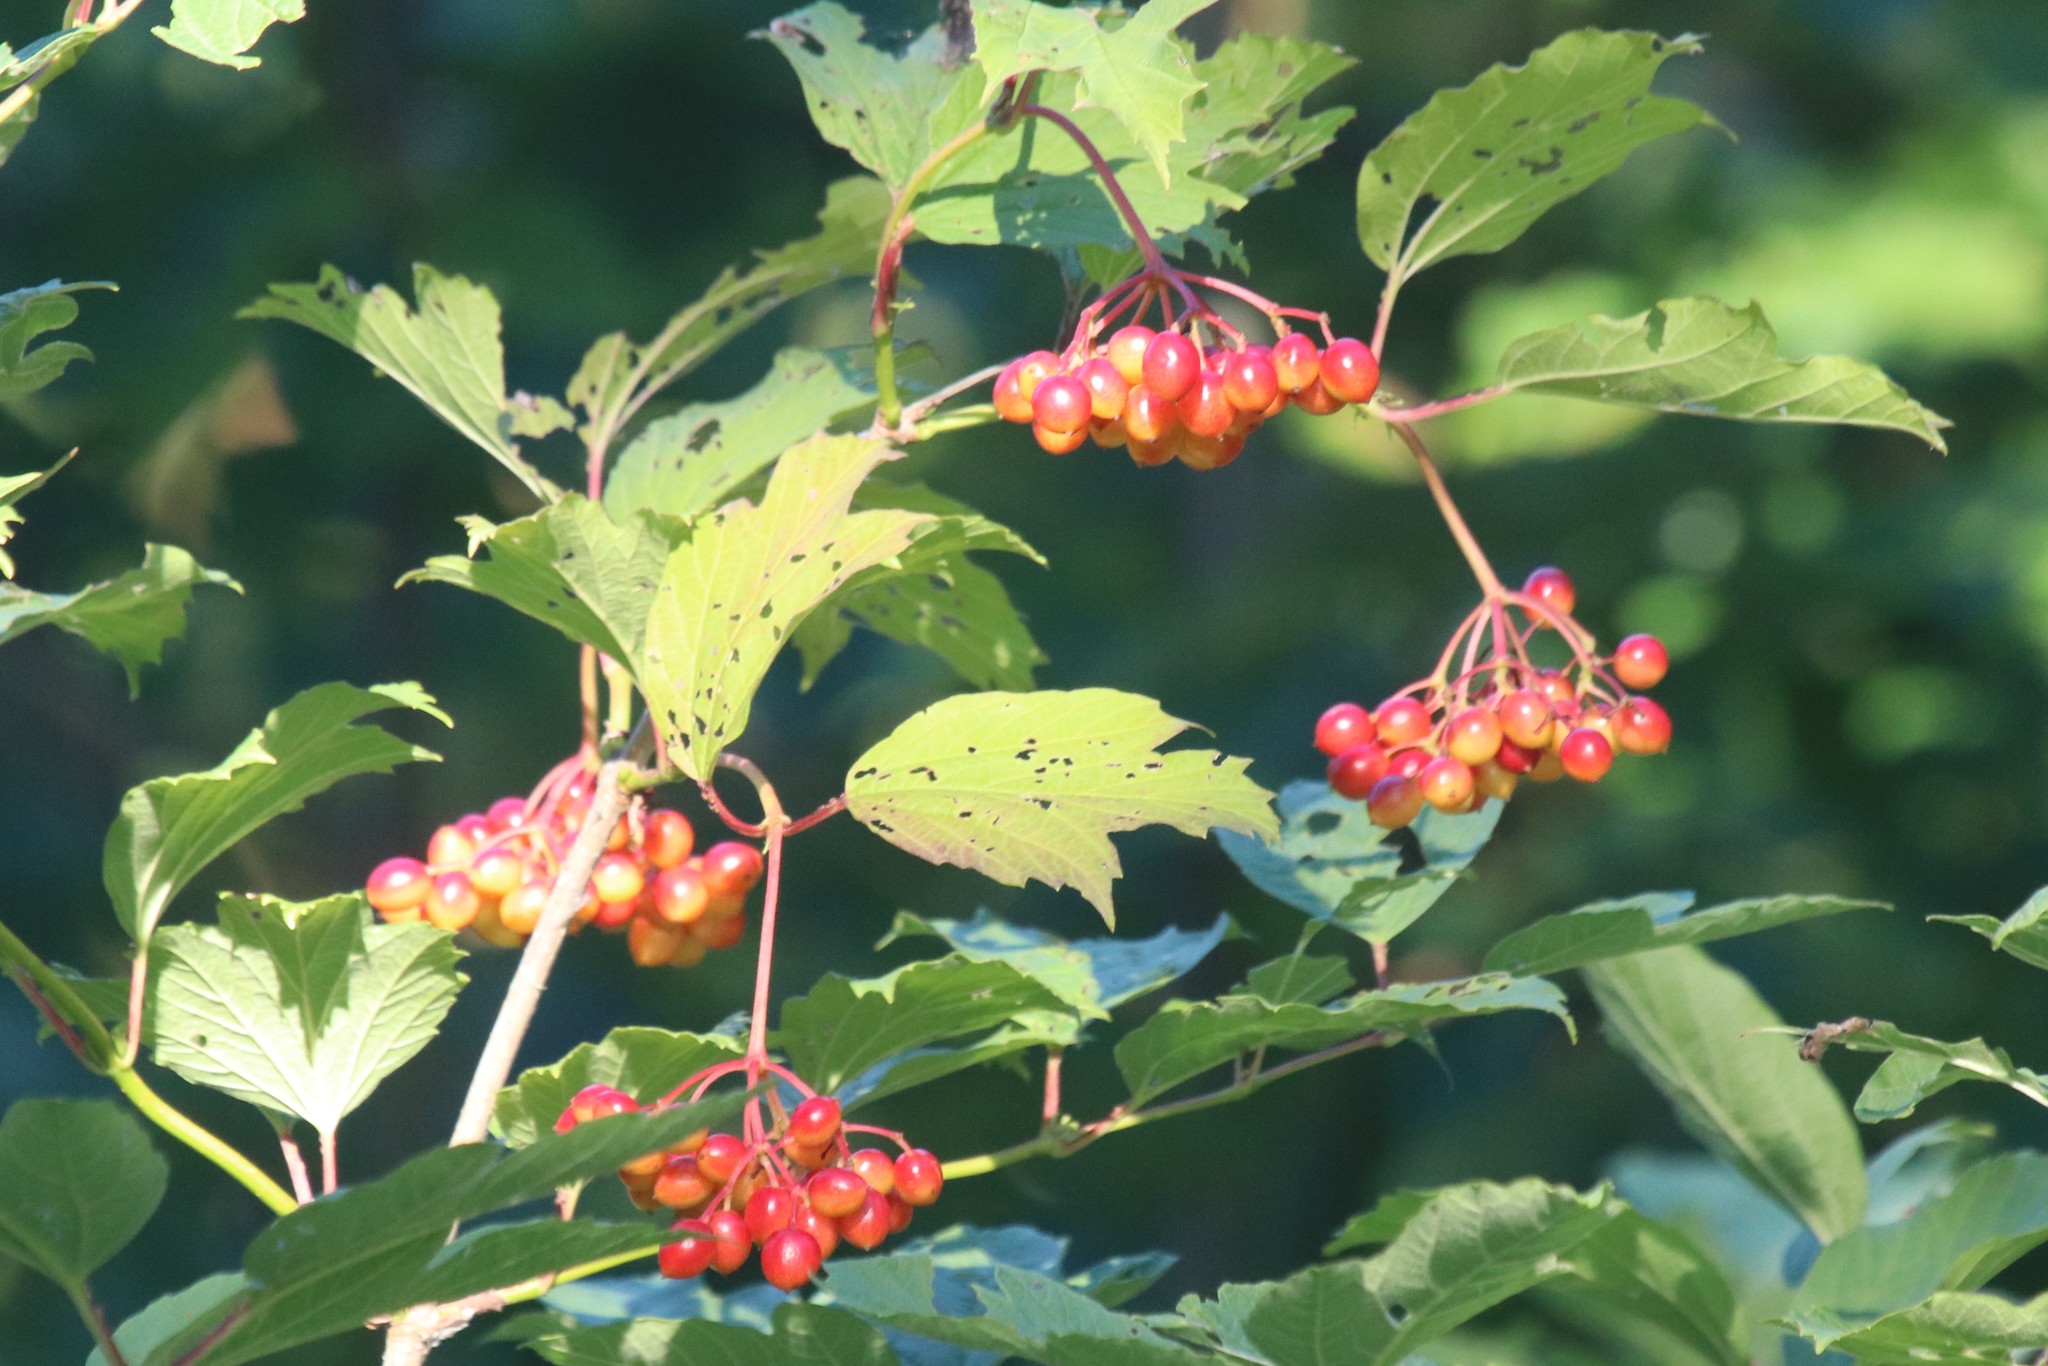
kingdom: Plantae
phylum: Tracheophyta
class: Magnoliopsida
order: Dipsacales
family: Viburnaceae
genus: Viburnum
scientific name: Viburnum opulus
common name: Guelder-rose
